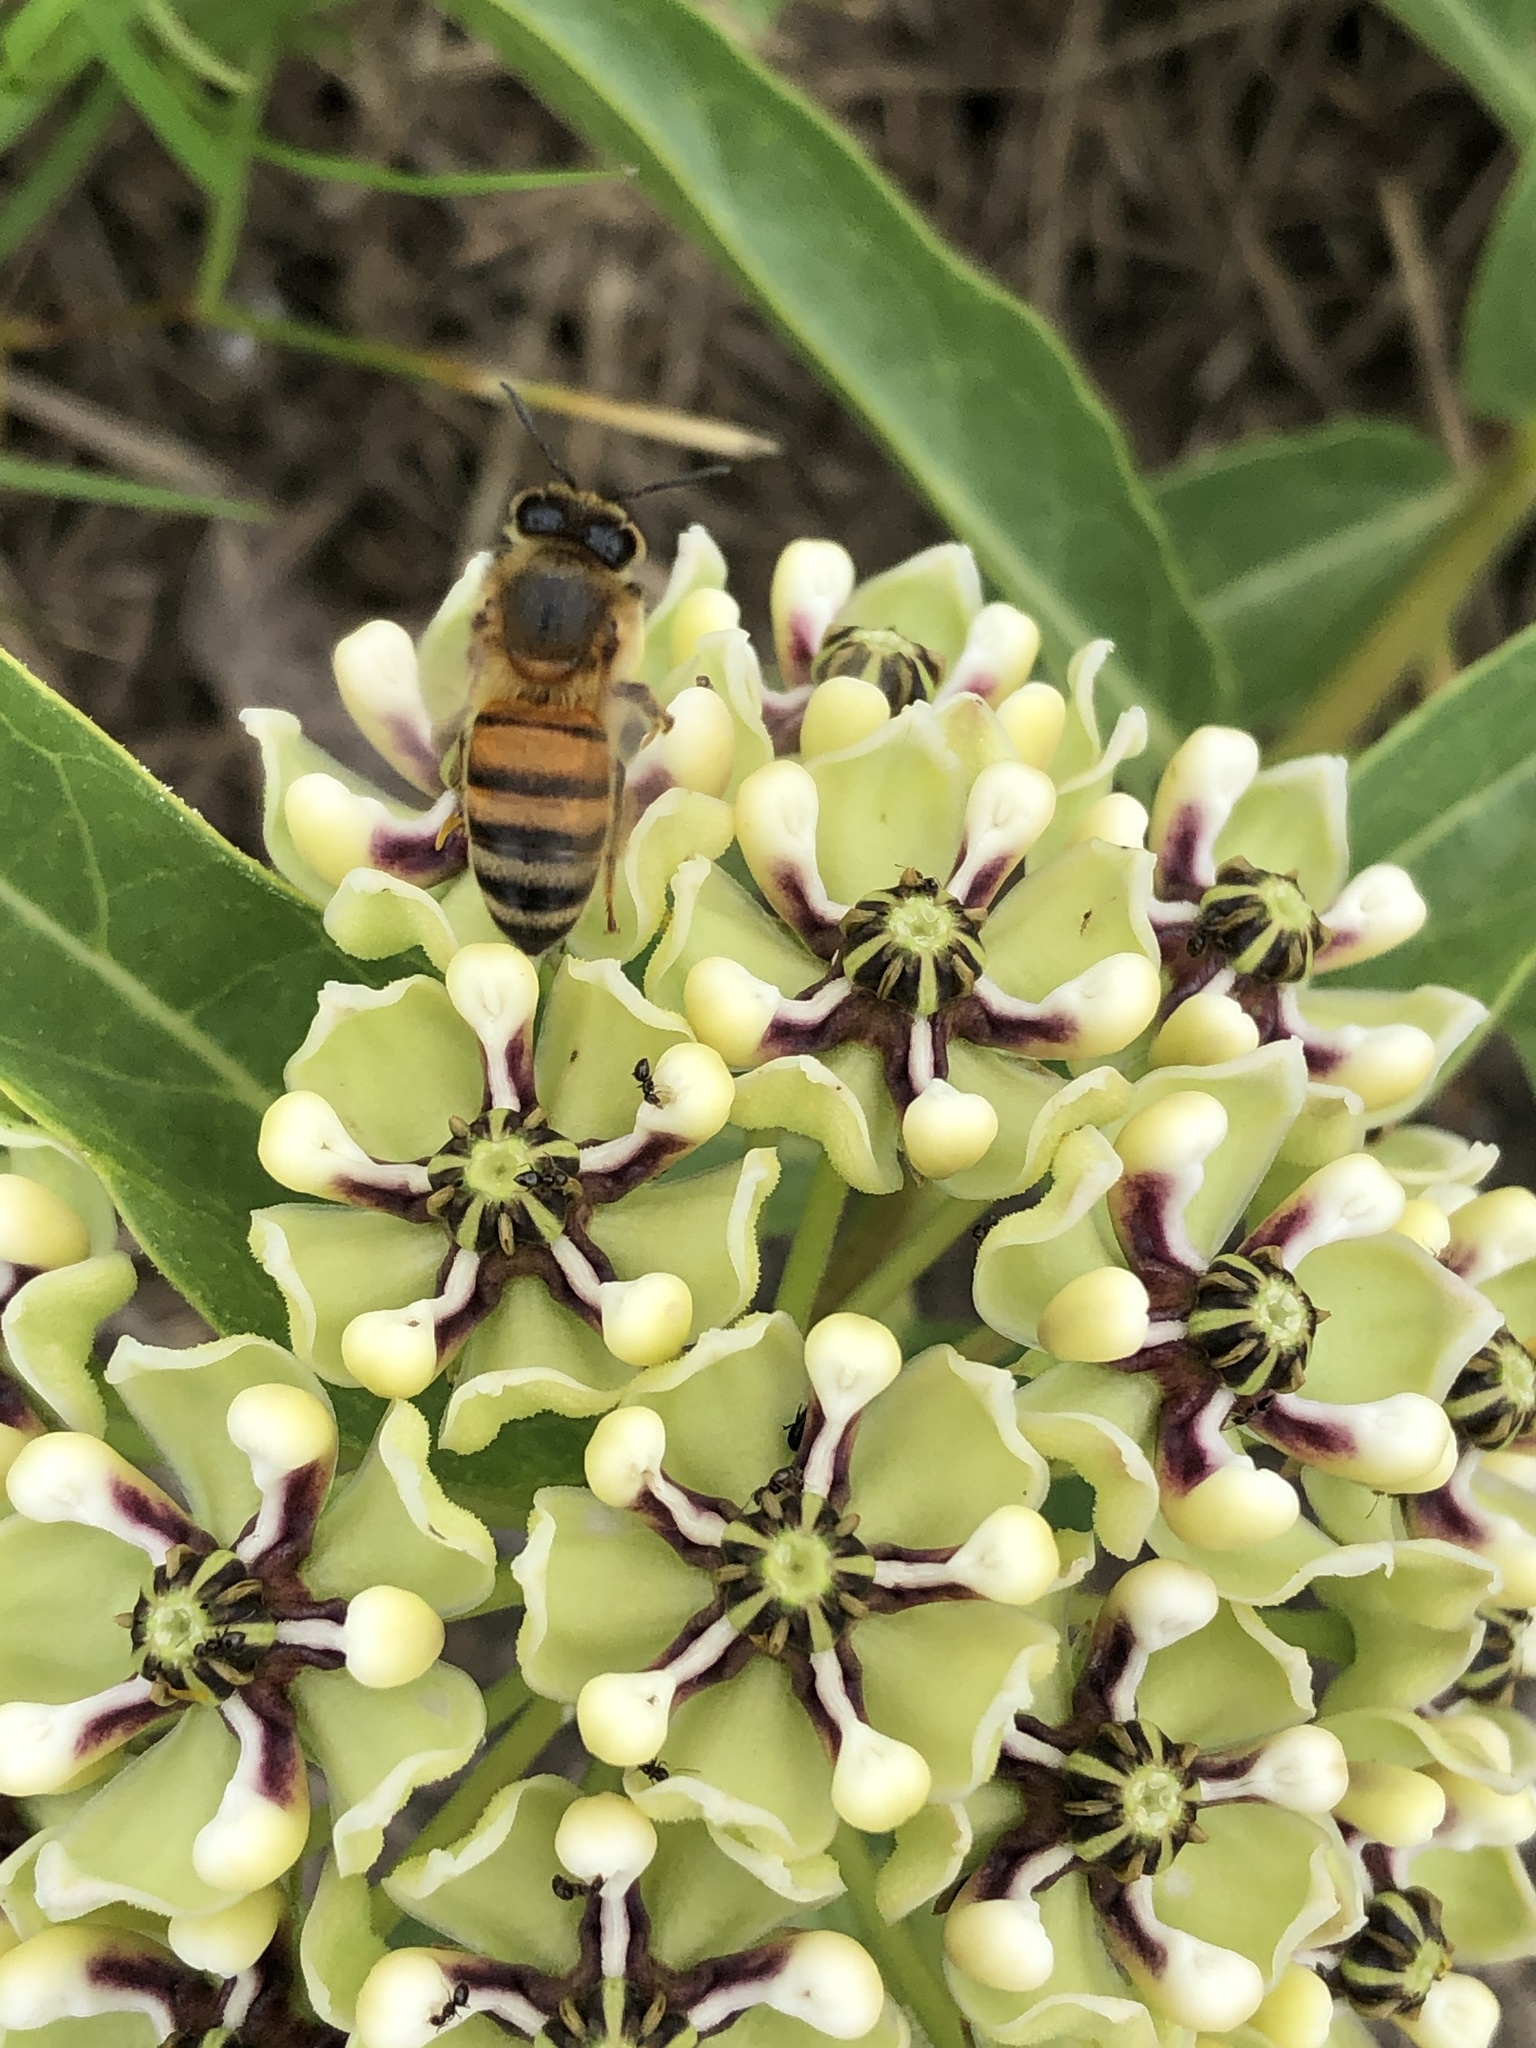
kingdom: Animalia
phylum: Arthropoda
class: Insecta
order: Hymenoptera
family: Apidae
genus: Apis
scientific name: Apis mellifera
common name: Honey bee
